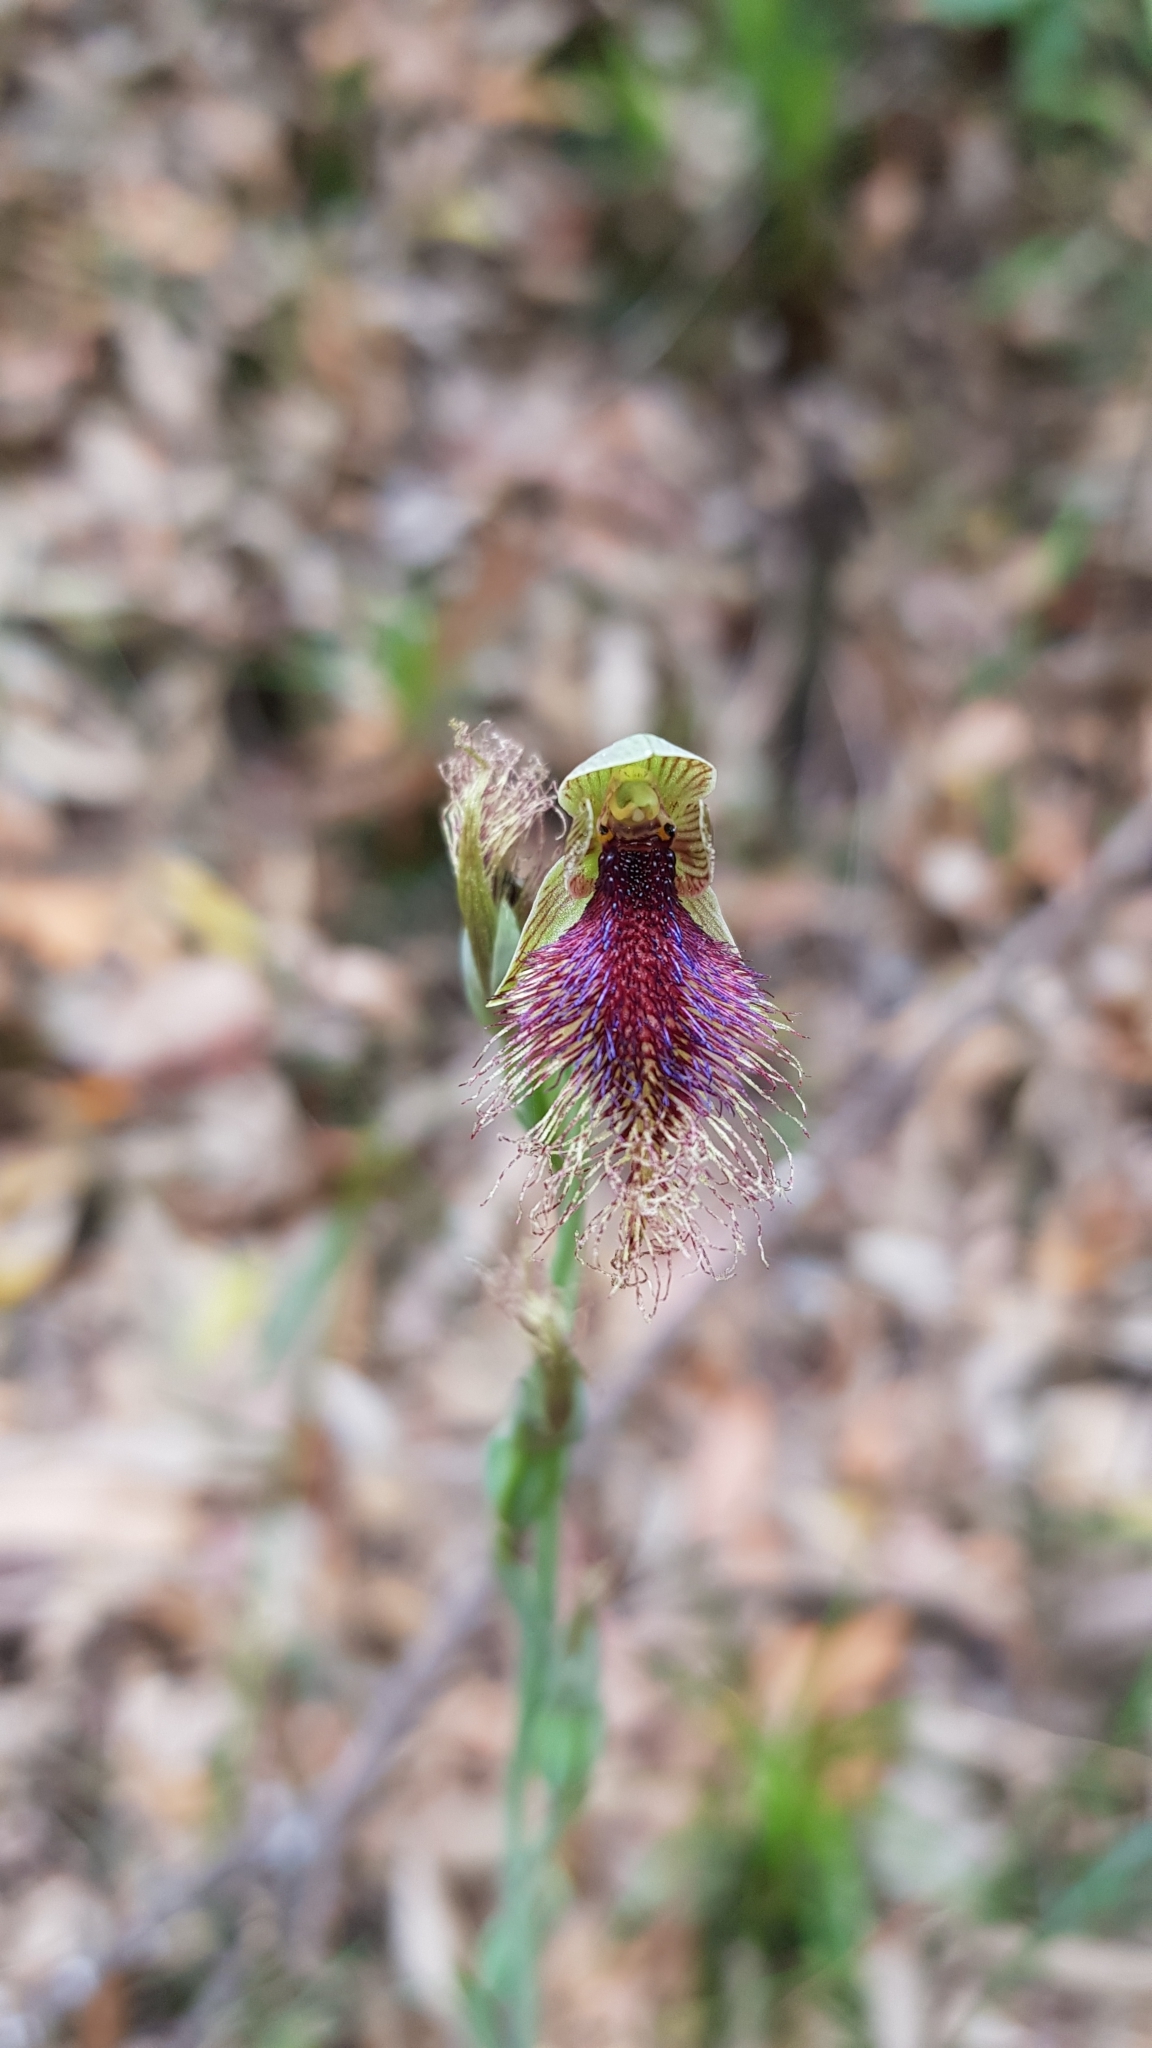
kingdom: Plantae
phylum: Tracheophyta
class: Liliopsida
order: Asparagales
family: Orchidaceae
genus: Calochilus
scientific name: Calochilus robertsonii
